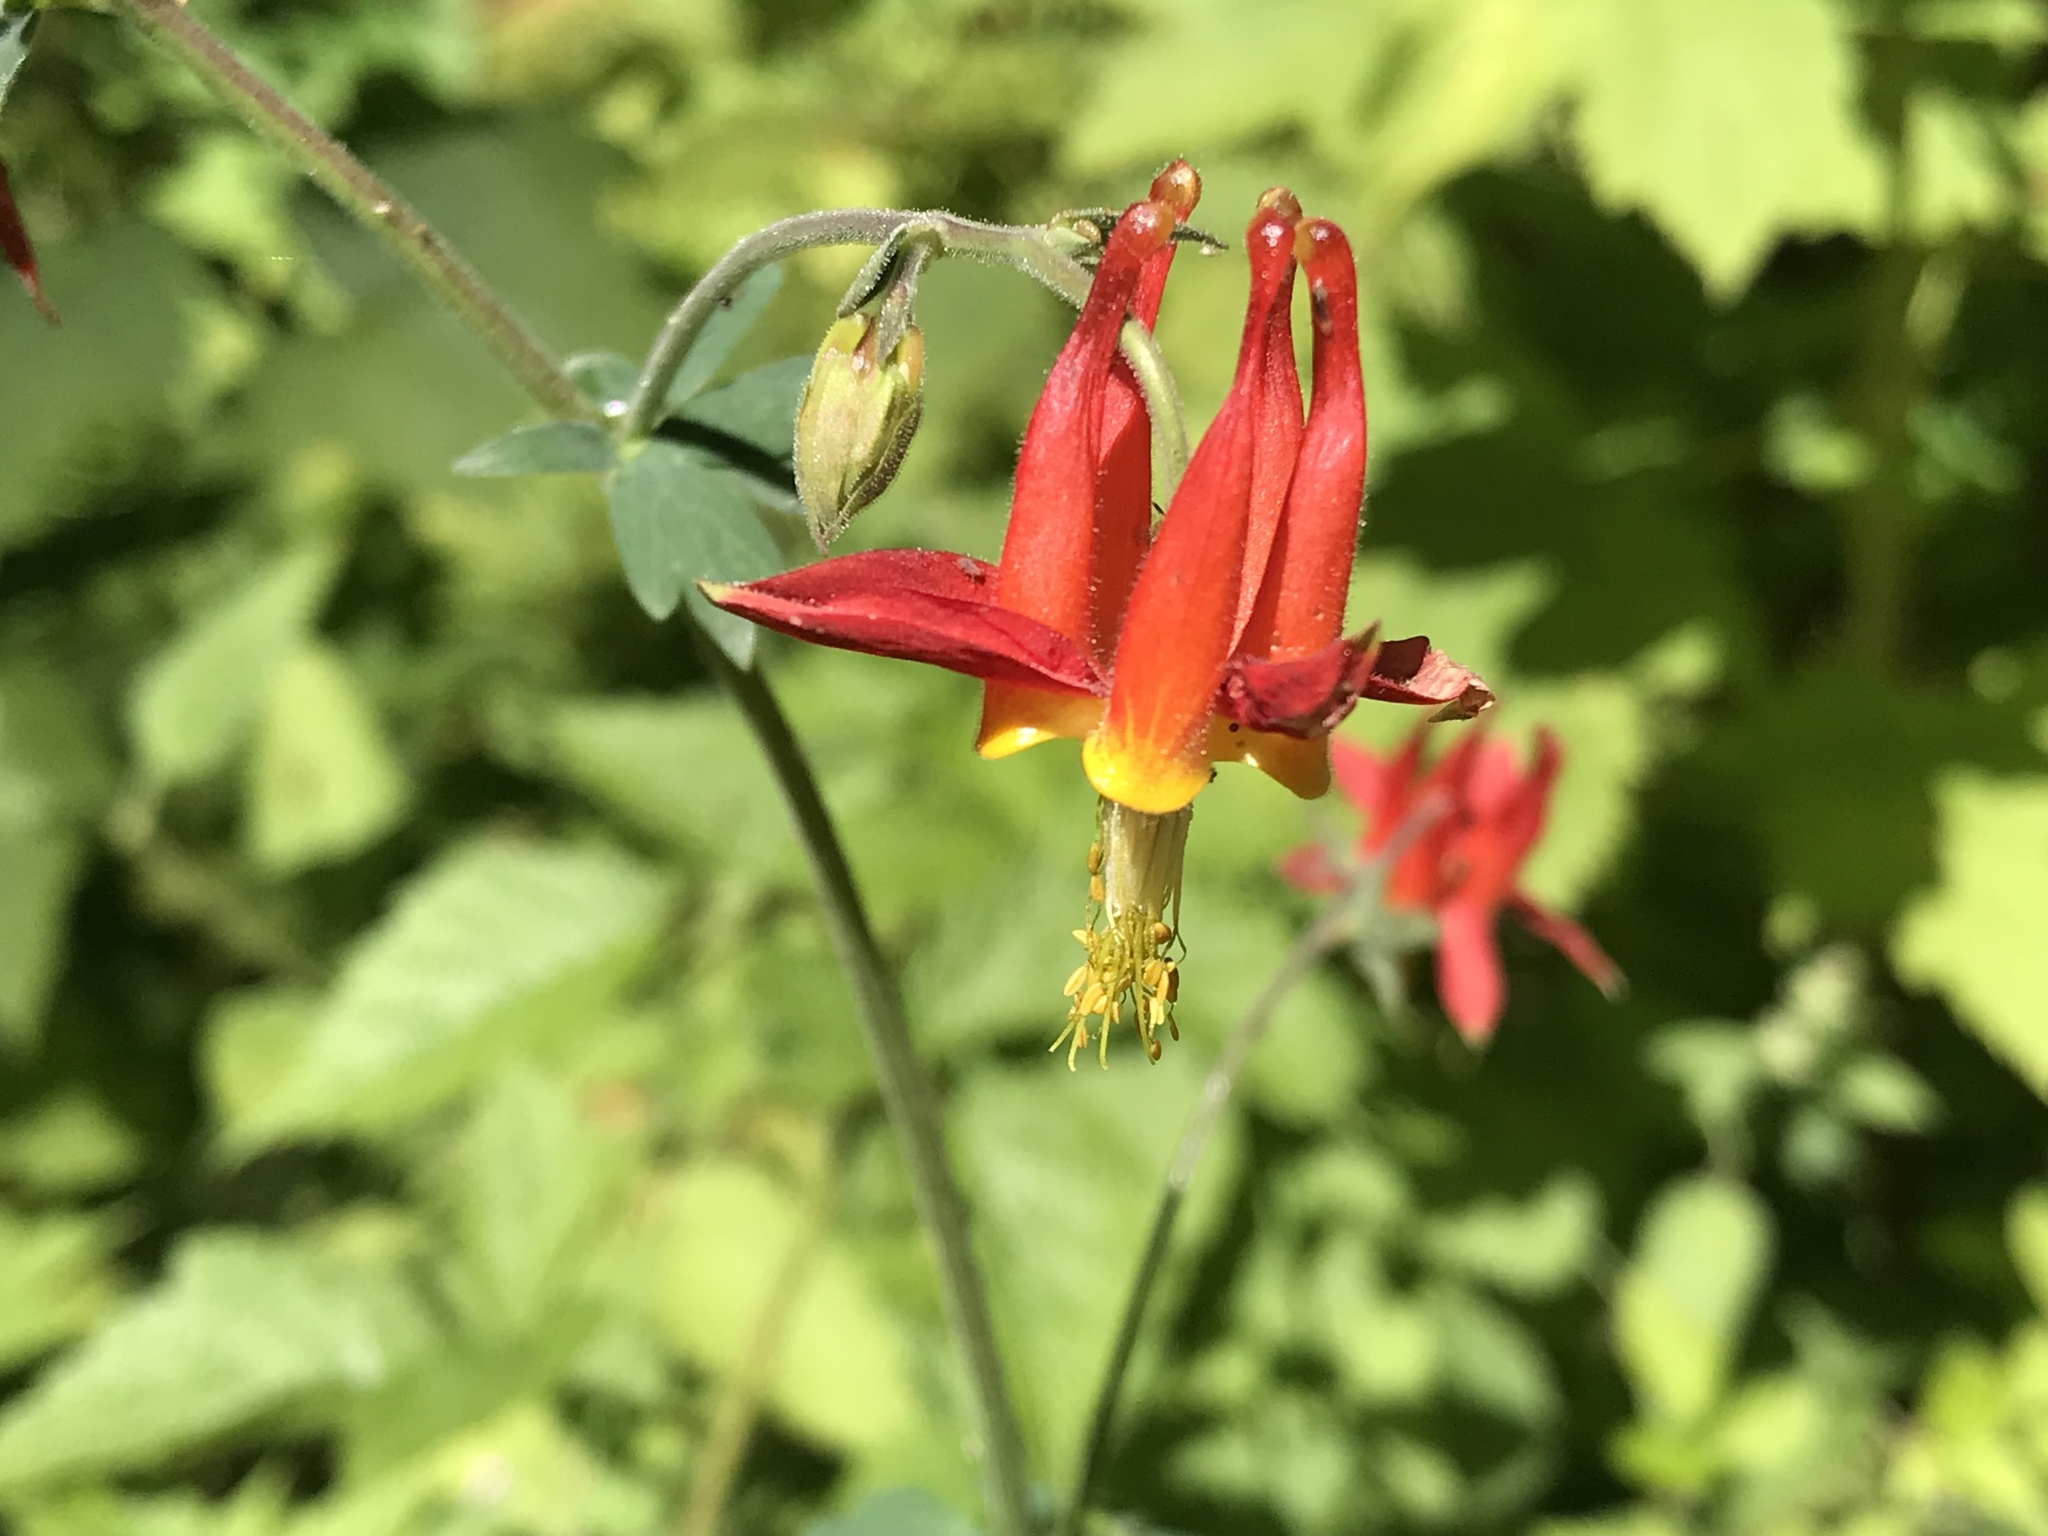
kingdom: Plantae
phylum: Tracheophyta
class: Magnoliopsida
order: Ranunculales
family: Ranunculaceae
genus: Aquilegia
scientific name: Aquilegia formosa
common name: Sitka columbine
